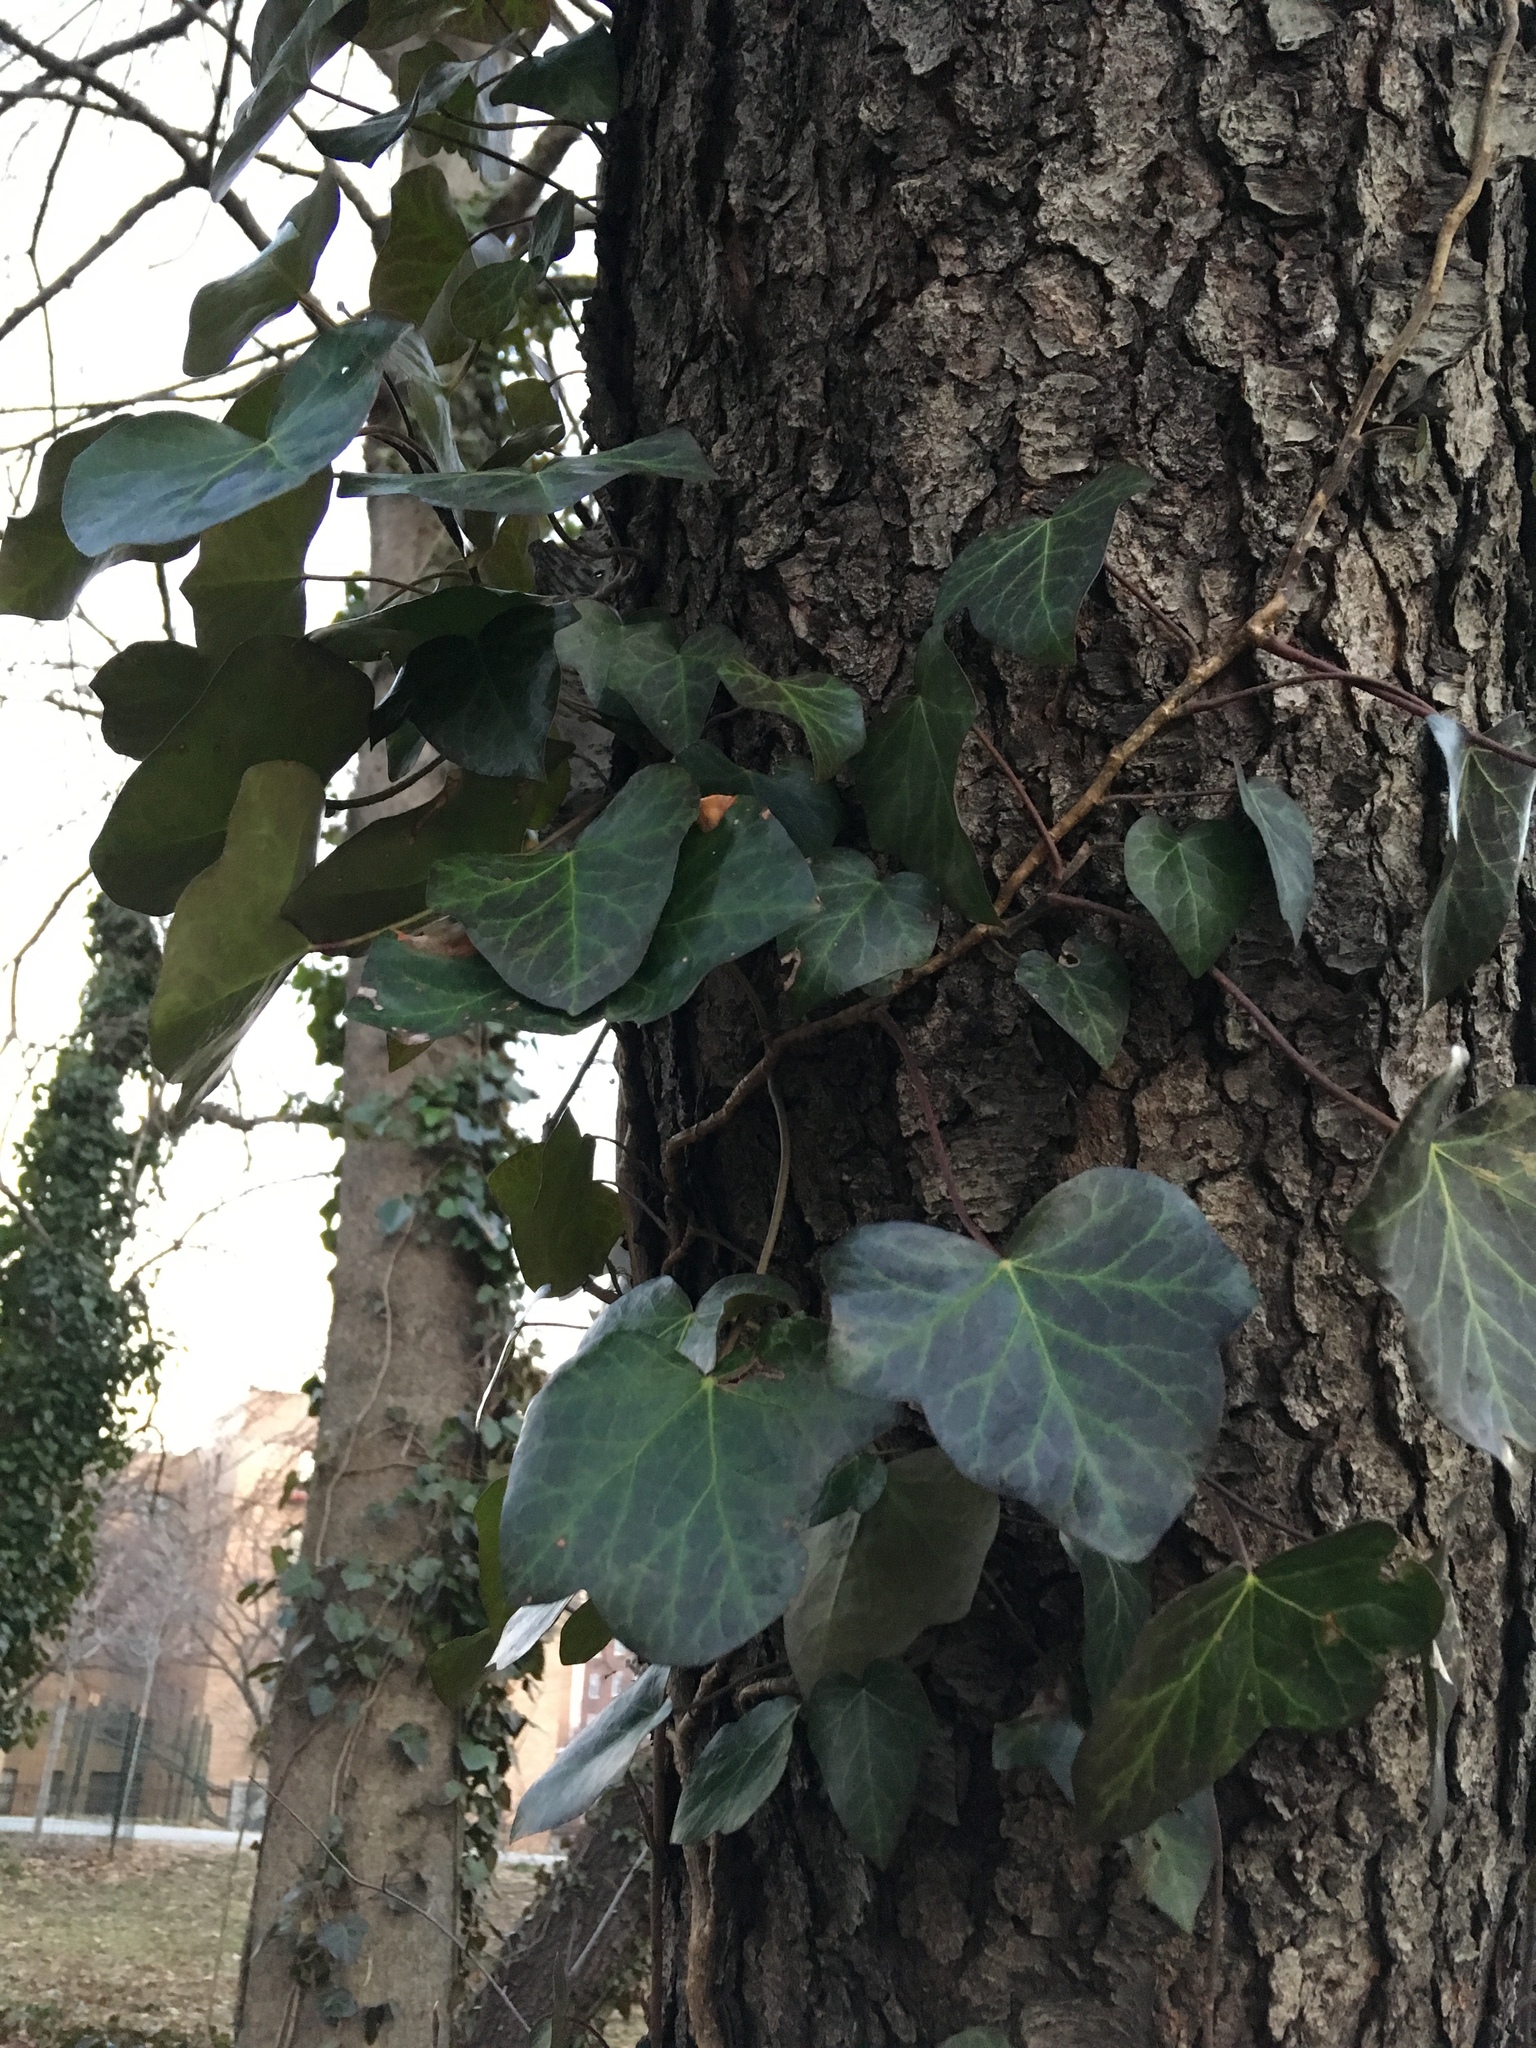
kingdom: Plantae
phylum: Tracheophyta
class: Magnoliopsida
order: Apiales
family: Araliaceae
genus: Hedera
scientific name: Hedera helix
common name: Ivy
